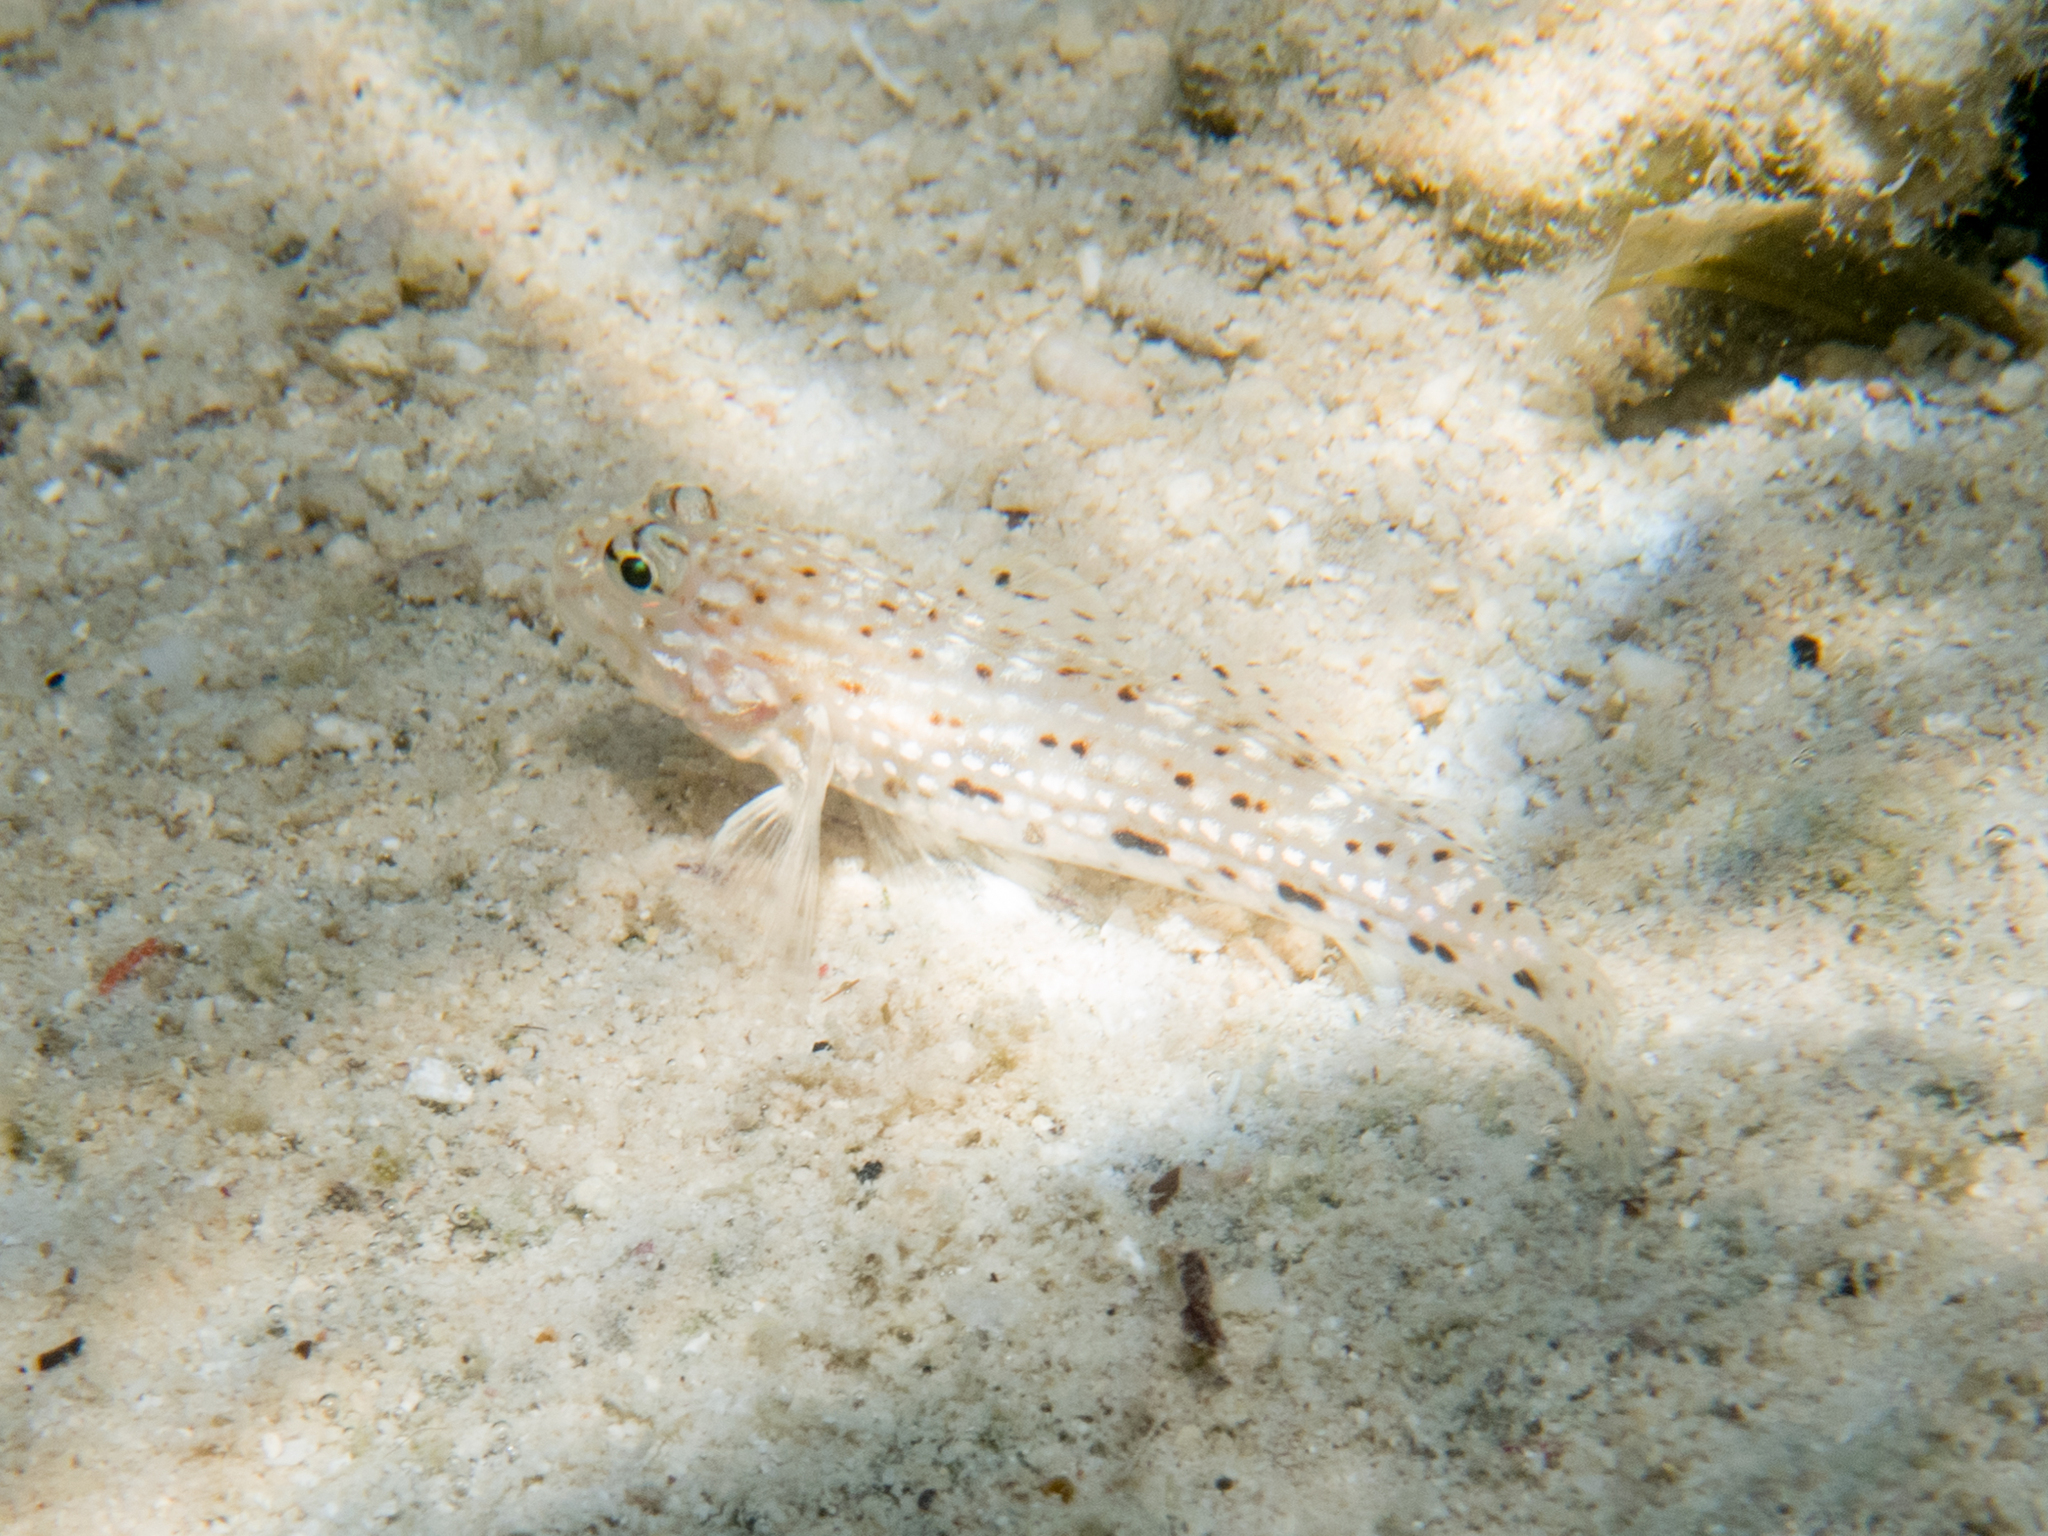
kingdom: Animalia
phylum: Chordata
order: Perciformes
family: Gobiidae
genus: Istigobius
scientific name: Istigobius decoratus
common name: Decorated goby
